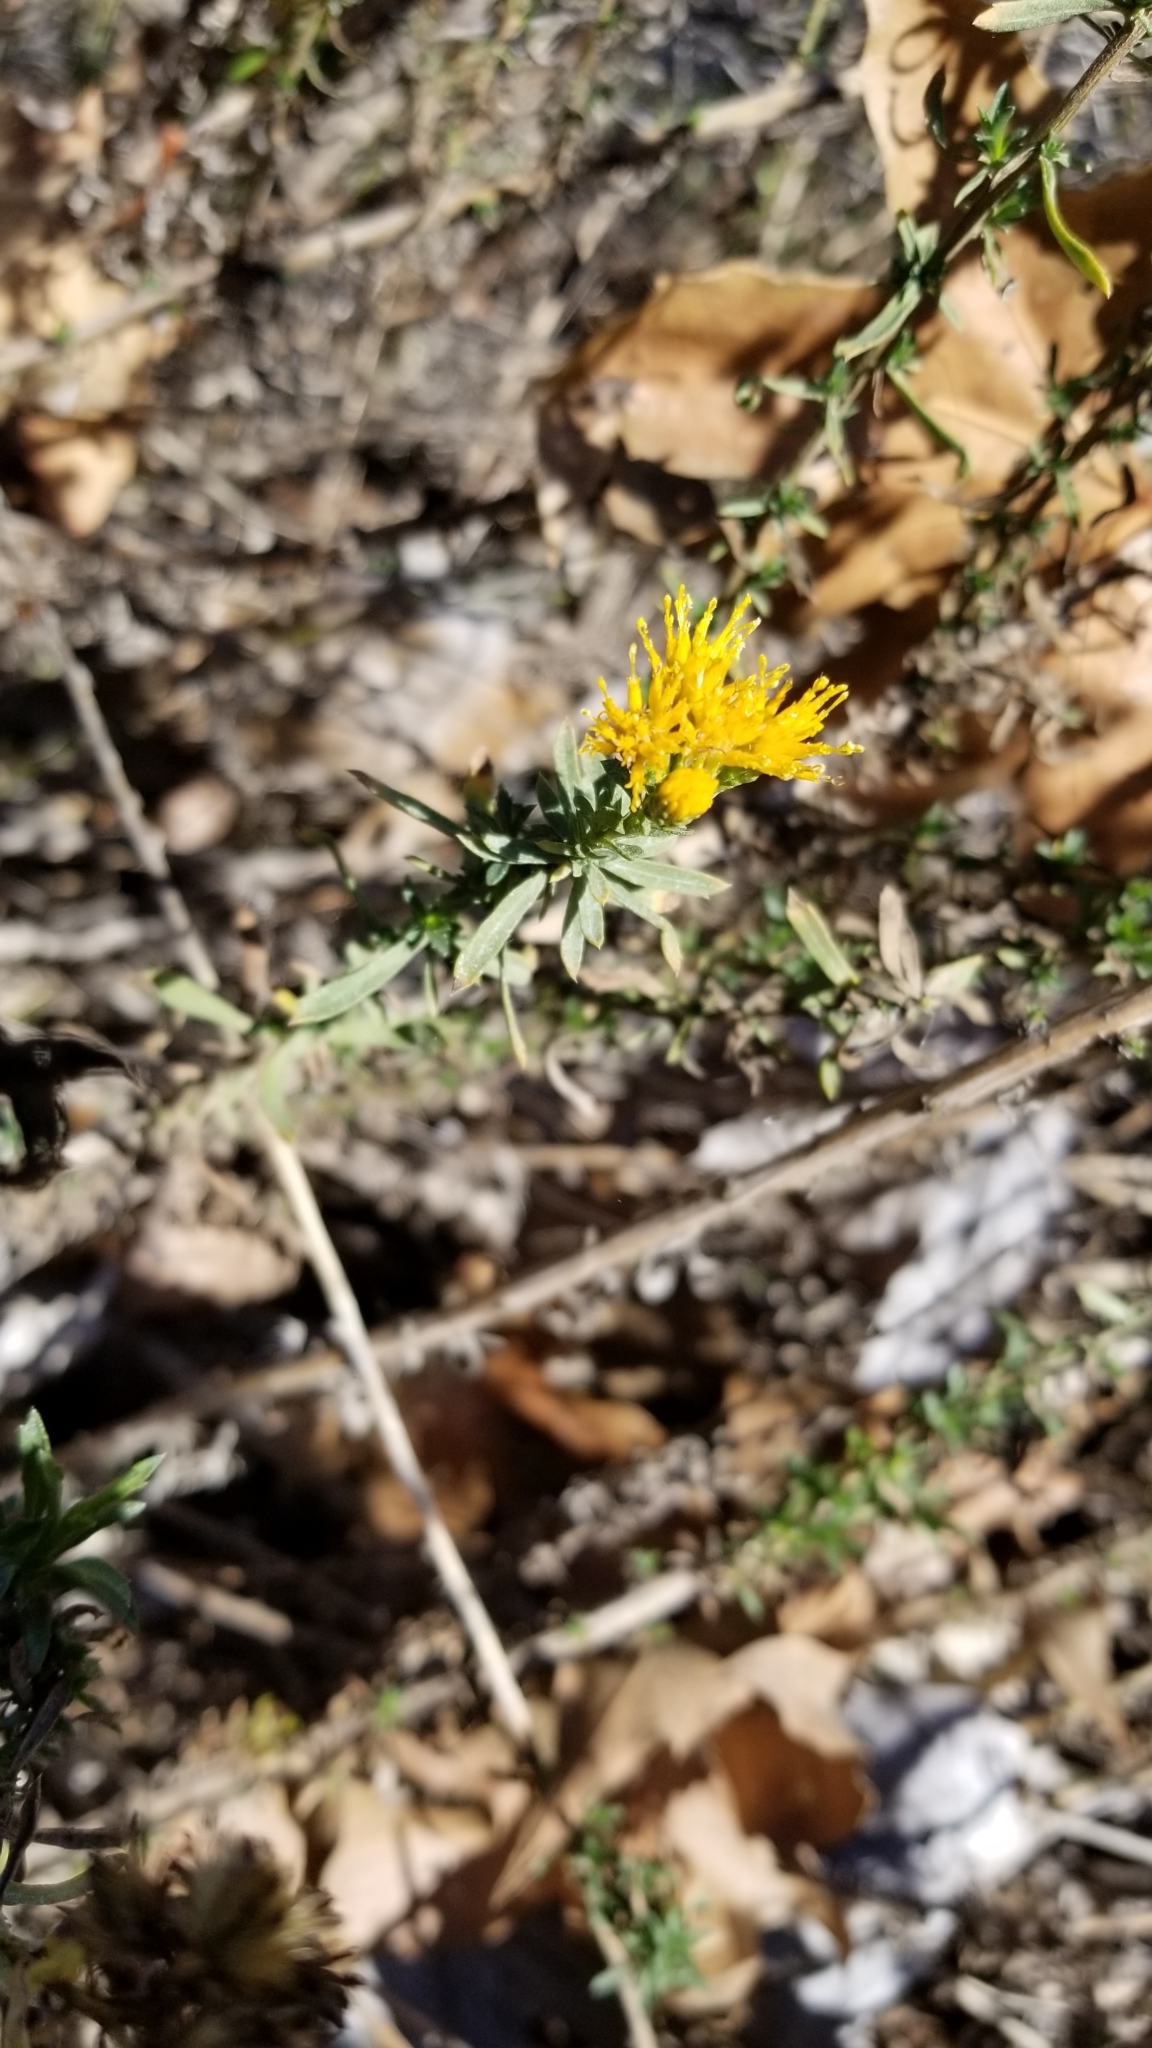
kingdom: Plantae
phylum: Tracheophyta
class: Magnoliopsida
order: Asterales
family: Asteraceae
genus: Isocoma
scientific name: Isocoma menziesii
